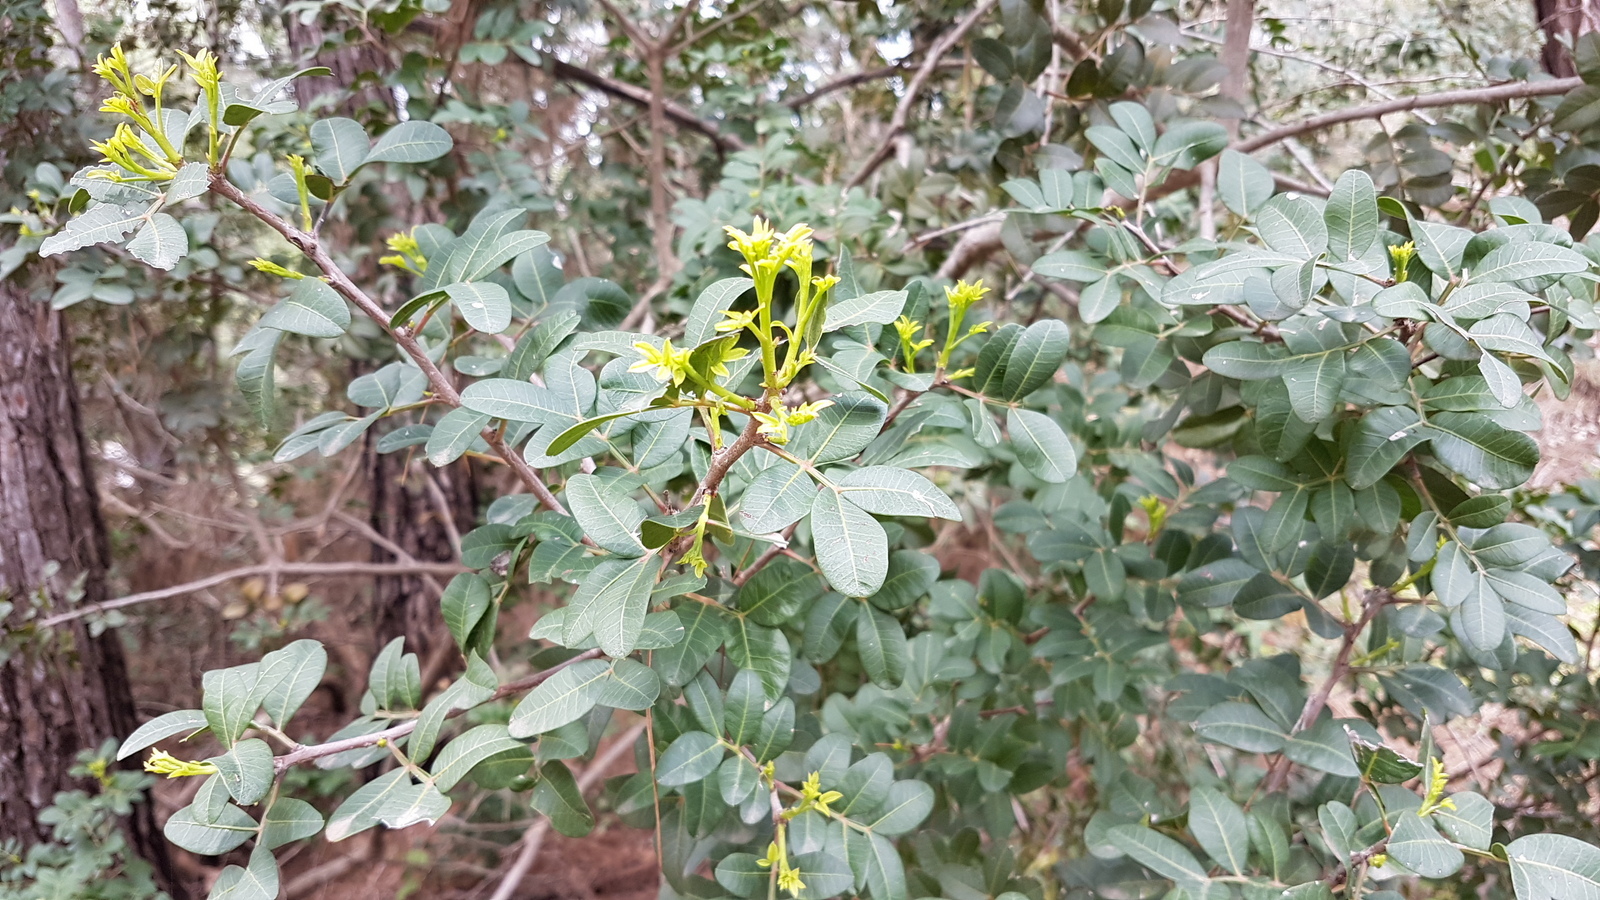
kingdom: Plantae
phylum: Tracheophyta
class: Magnoliopsida
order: Sapindales
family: Anacardiaceae
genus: Pistacia
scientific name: Pistacia lentiscus
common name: Lentisk
